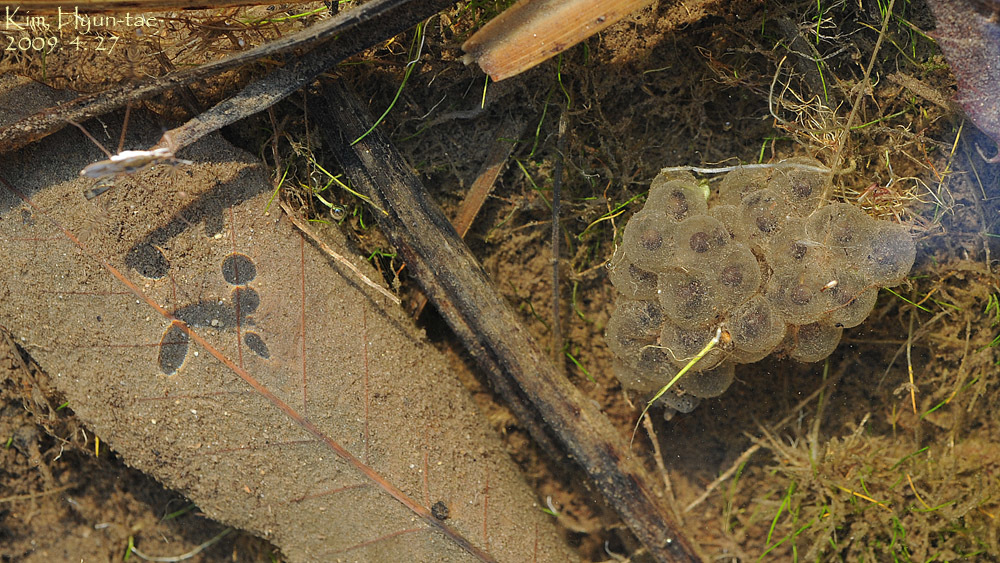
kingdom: Animalia
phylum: Chordata
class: Amphibia
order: Anura
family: Bombinatoridae
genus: Bombina
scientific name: Bombina orientalis
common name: Oriental firebelly toad
